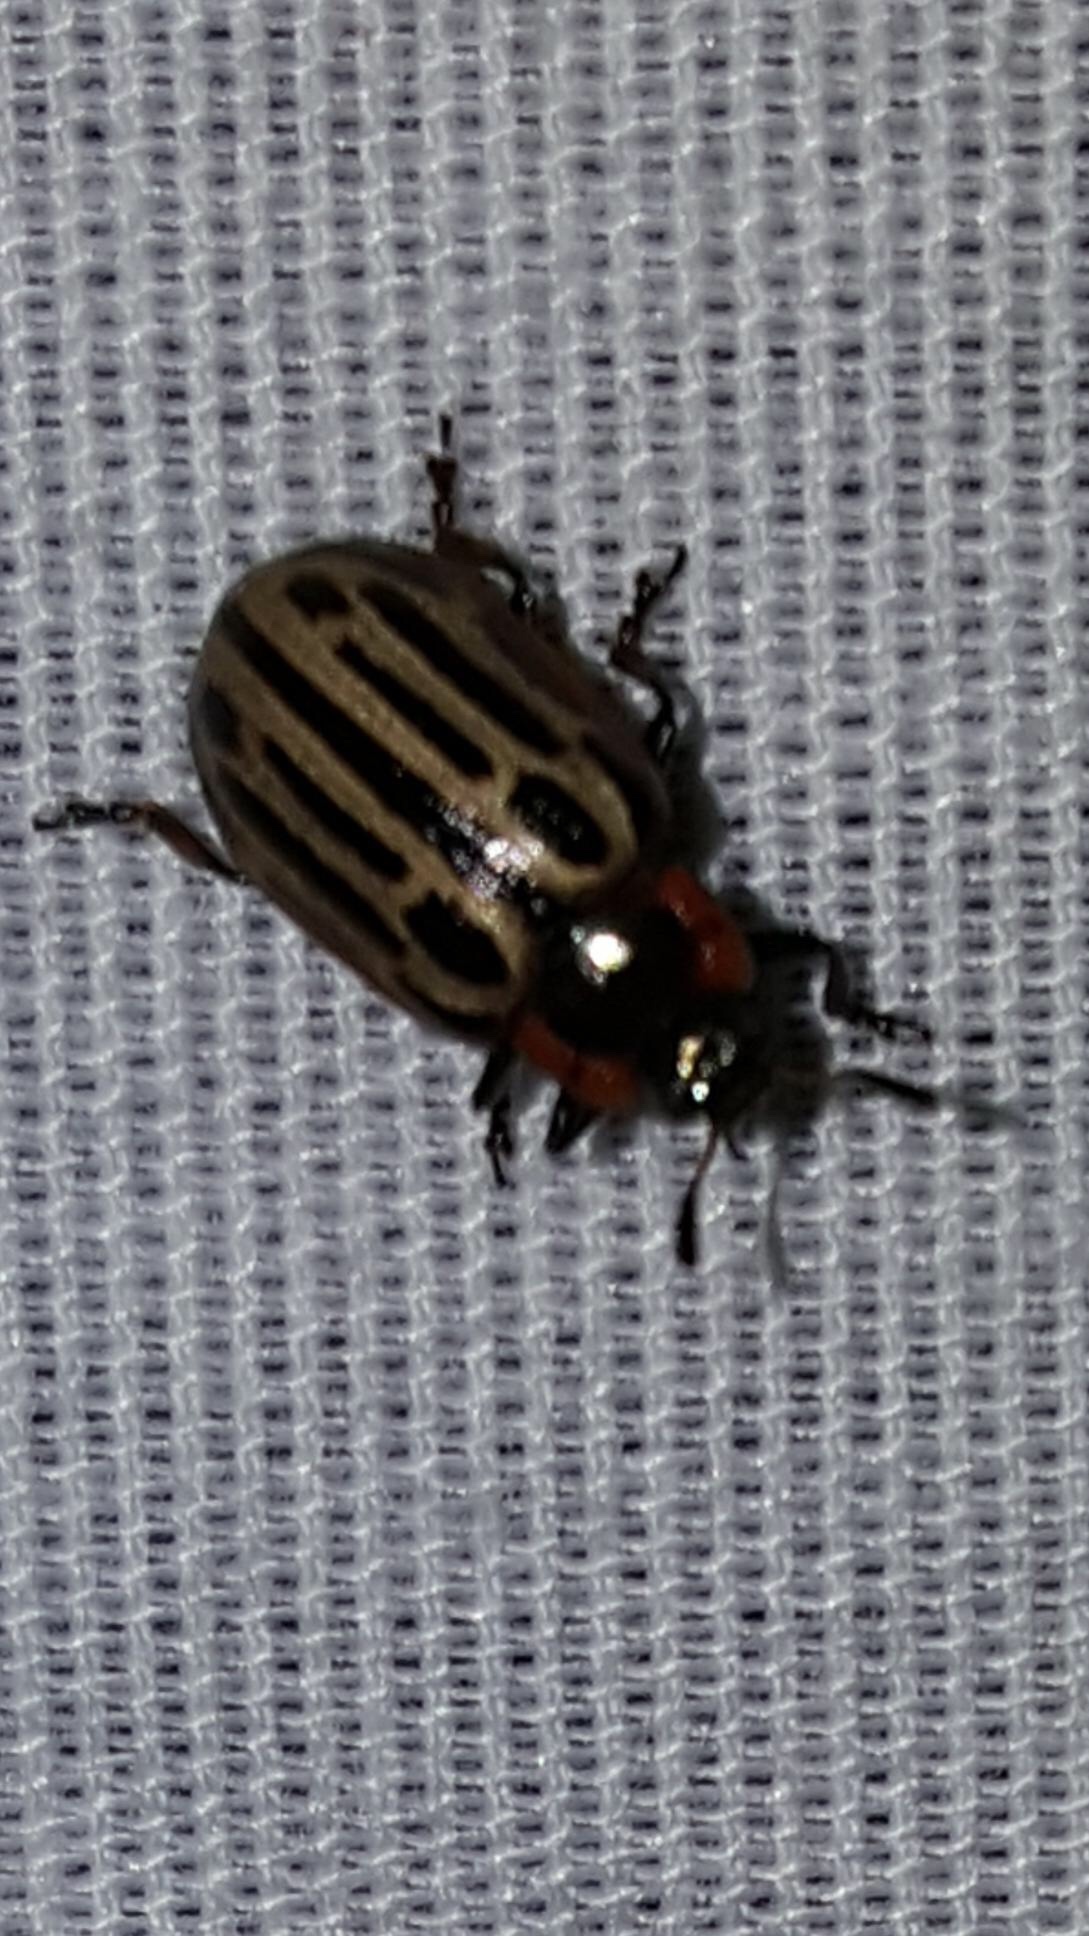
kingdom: Animalia
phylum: Arthropoda
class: Insecta
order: Coleoptera
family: Chrysomelidae
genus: Aethiopocassis
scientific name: Aethiopocassis scripta
